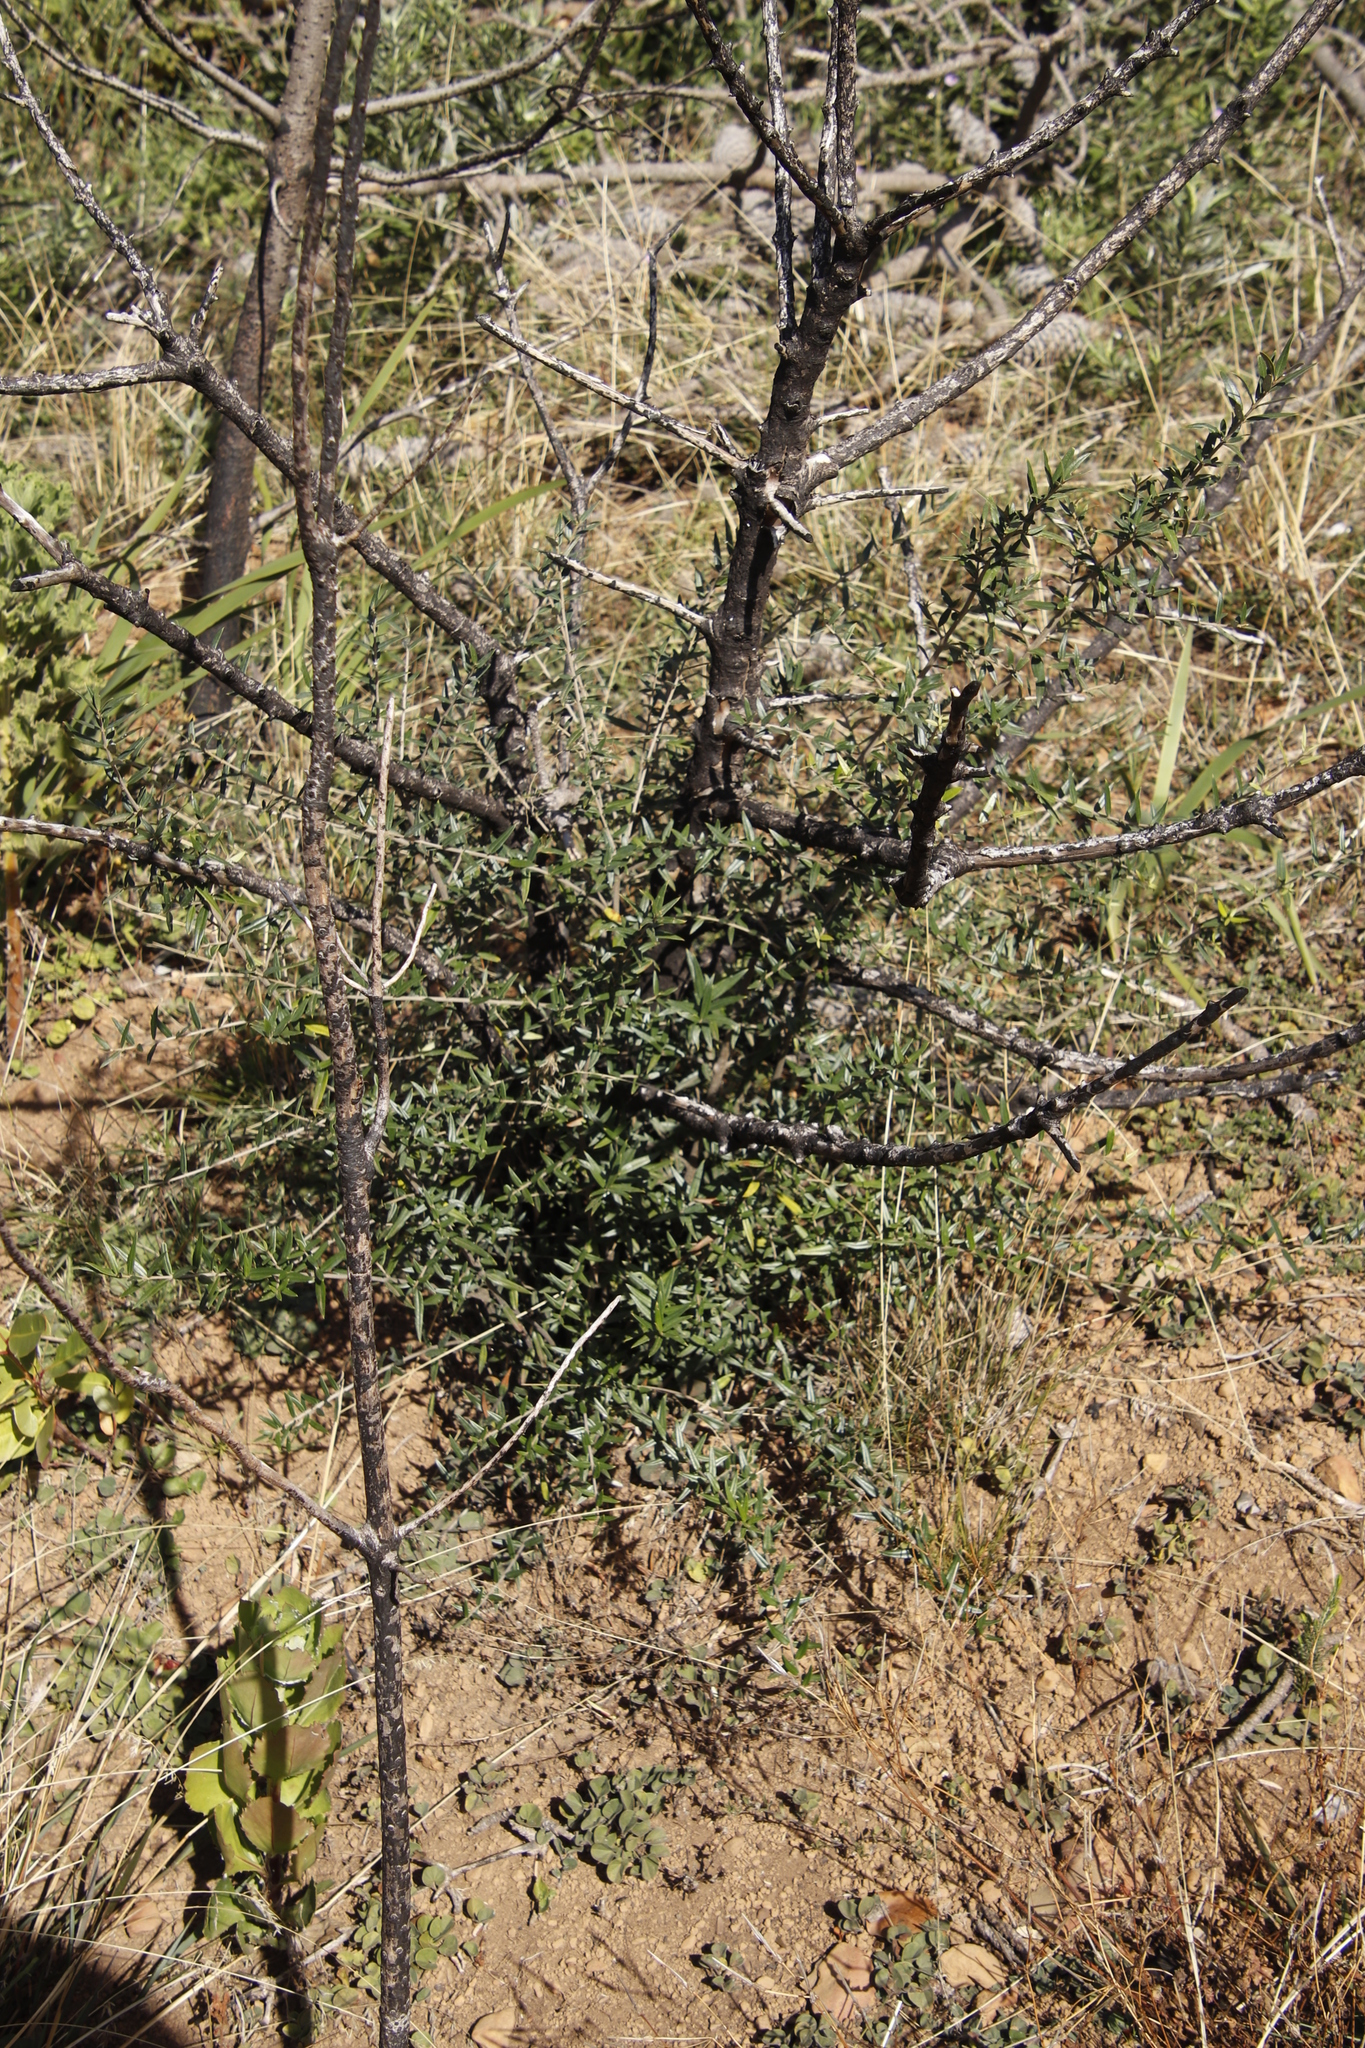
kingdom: Plantae
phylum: Tracheophyta
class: Magnoliopsida
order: Lamiales
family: Oleaceae
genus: Olea
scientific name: Olea europaea
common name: Olive
